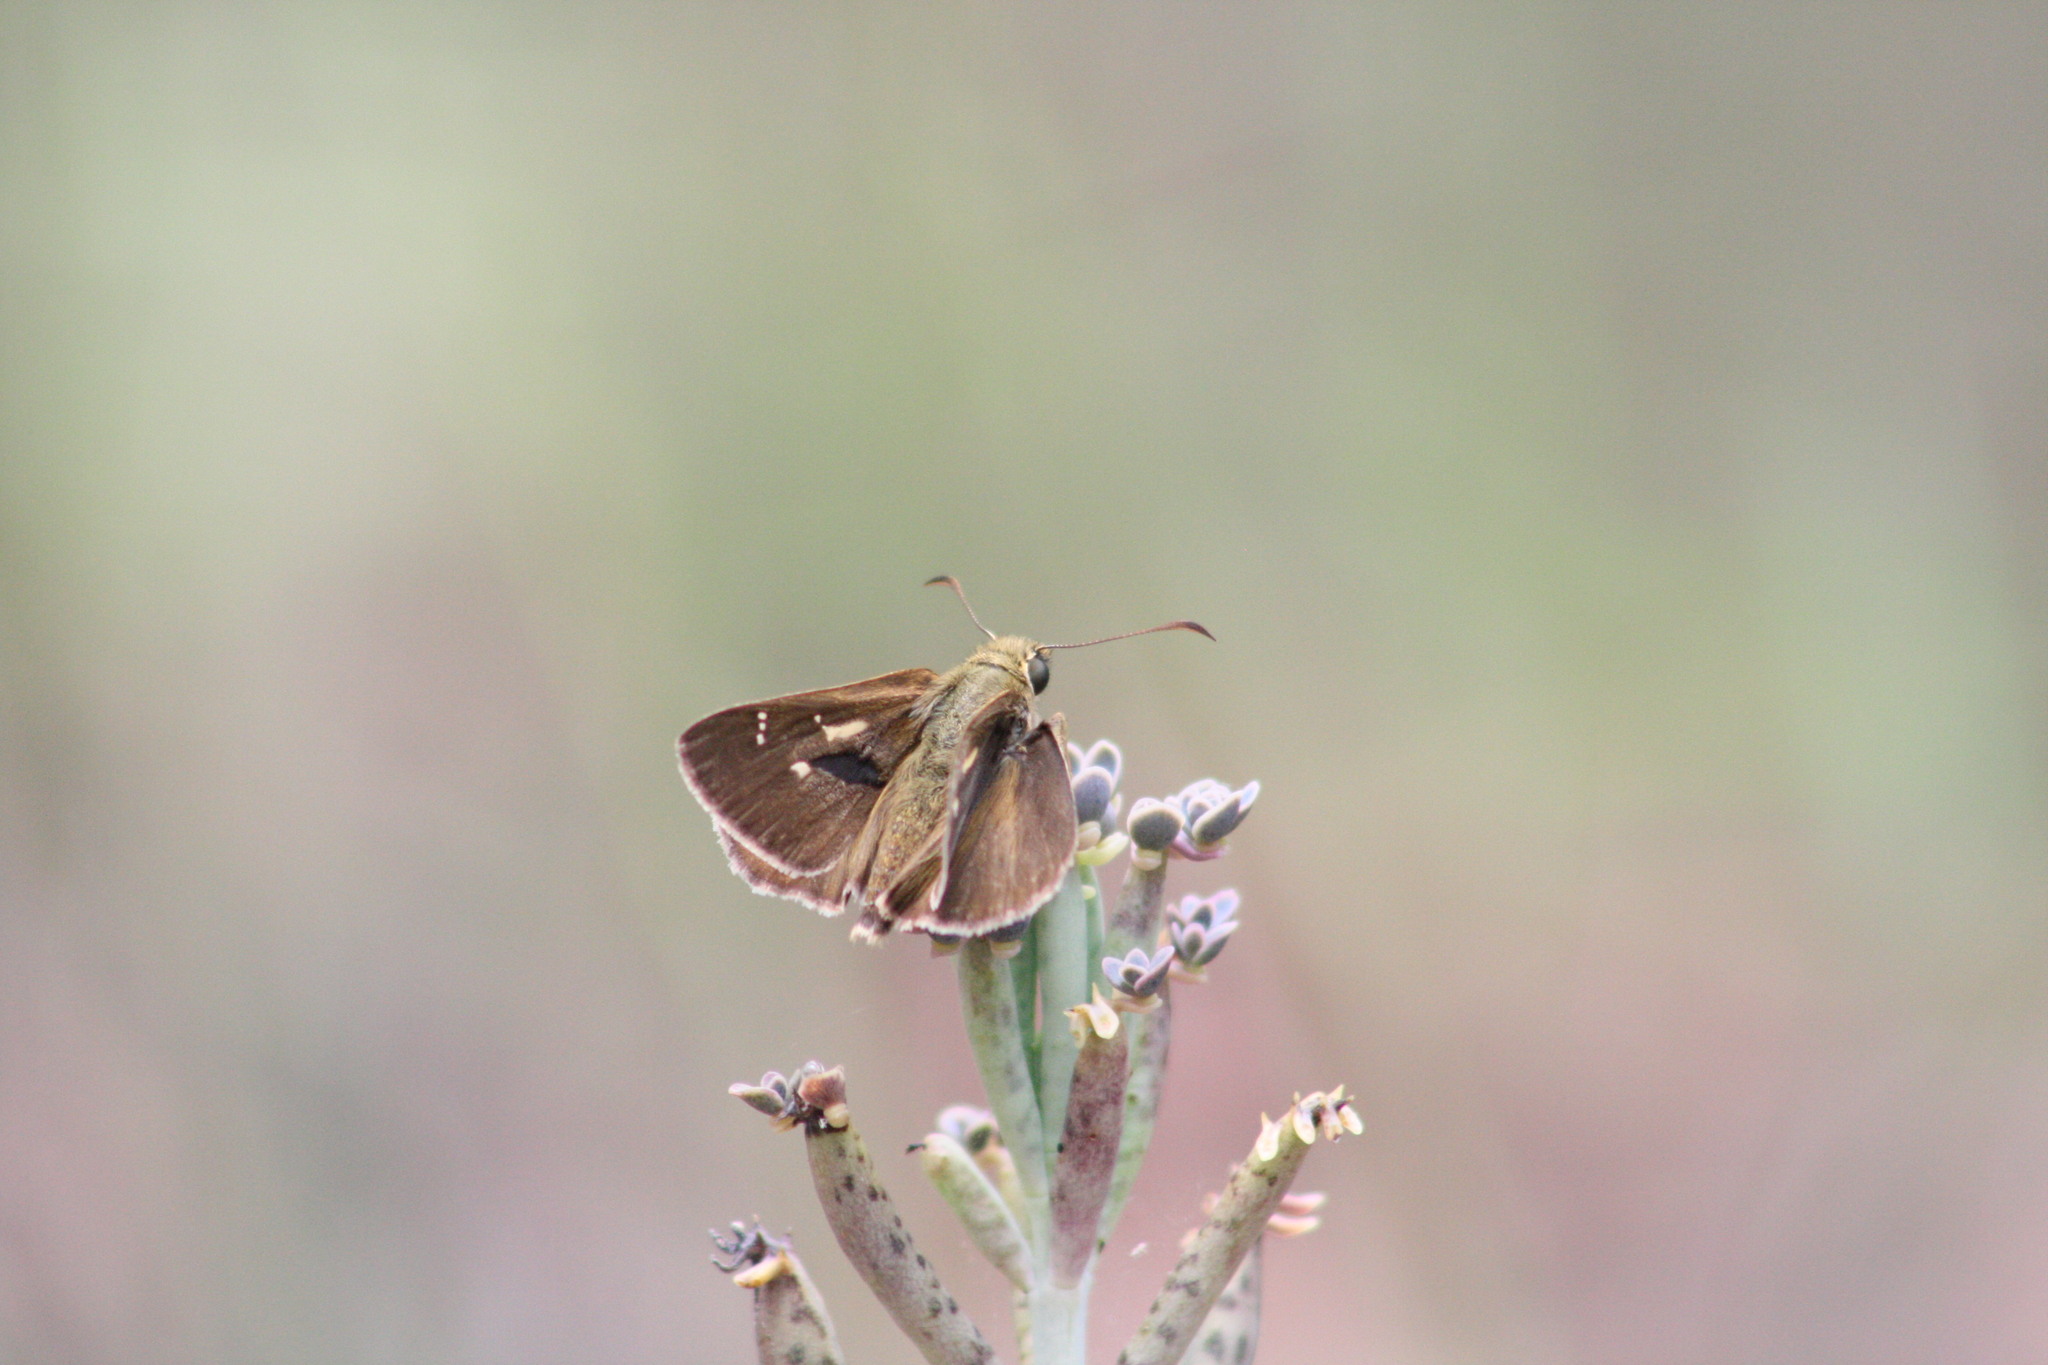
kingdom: Animalia
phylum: Arthropoda
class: Insecta
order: Lepidoptera
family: Hesperiidae
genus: Toxidia
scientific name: Toxidia
